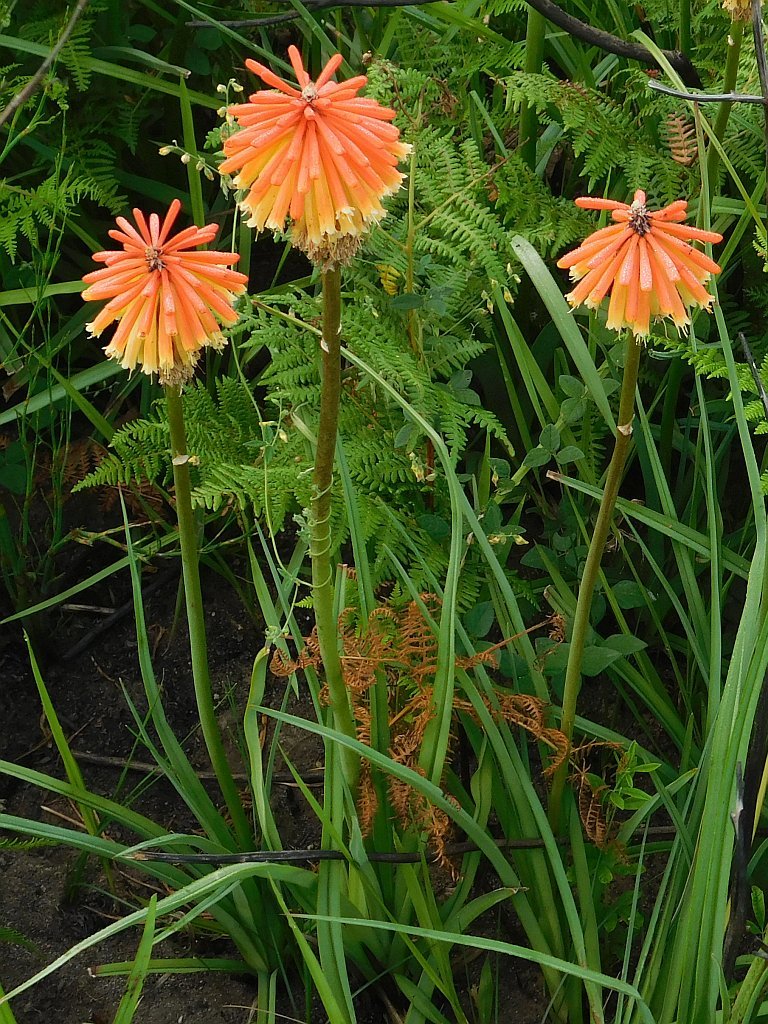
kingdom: Plantae
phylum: Tracheophyta
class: Liliopsida
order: Asparagales
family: Asphodelaceae
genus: Kniphofia
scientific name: Kniphofia uvaria
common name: Red-hot-poker
